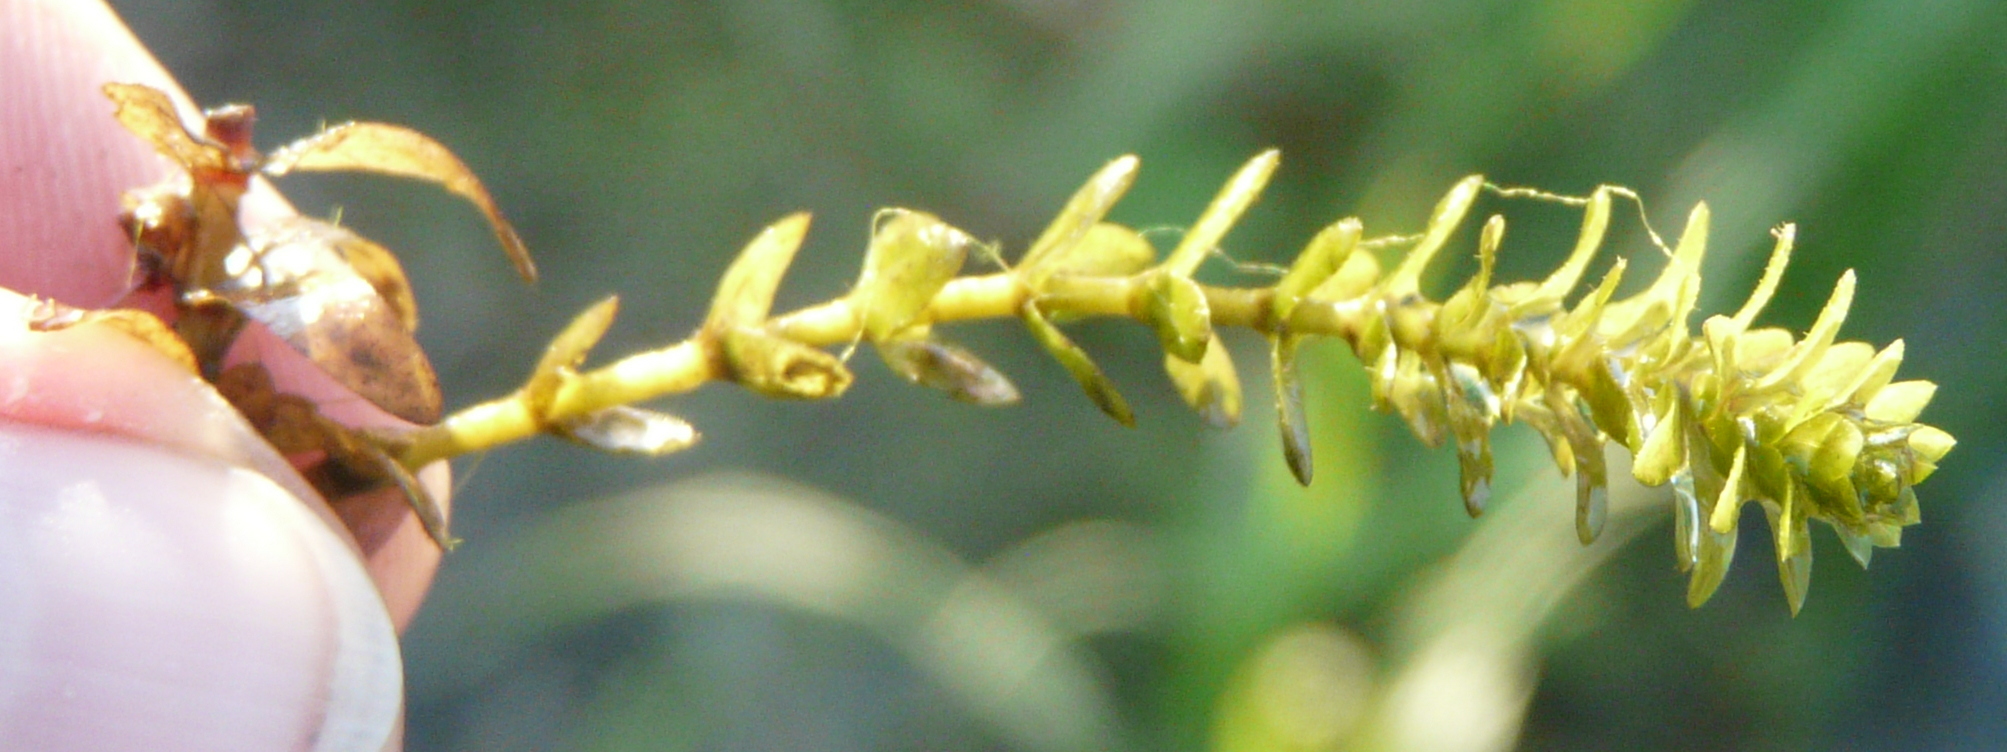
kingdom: Plantae
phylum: Tracheophyta
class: Liliopsida
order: Alismatales
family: Hydrocharitaceae
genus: Elodea
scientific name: Elodea canadensis
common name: Canadian waterweed
